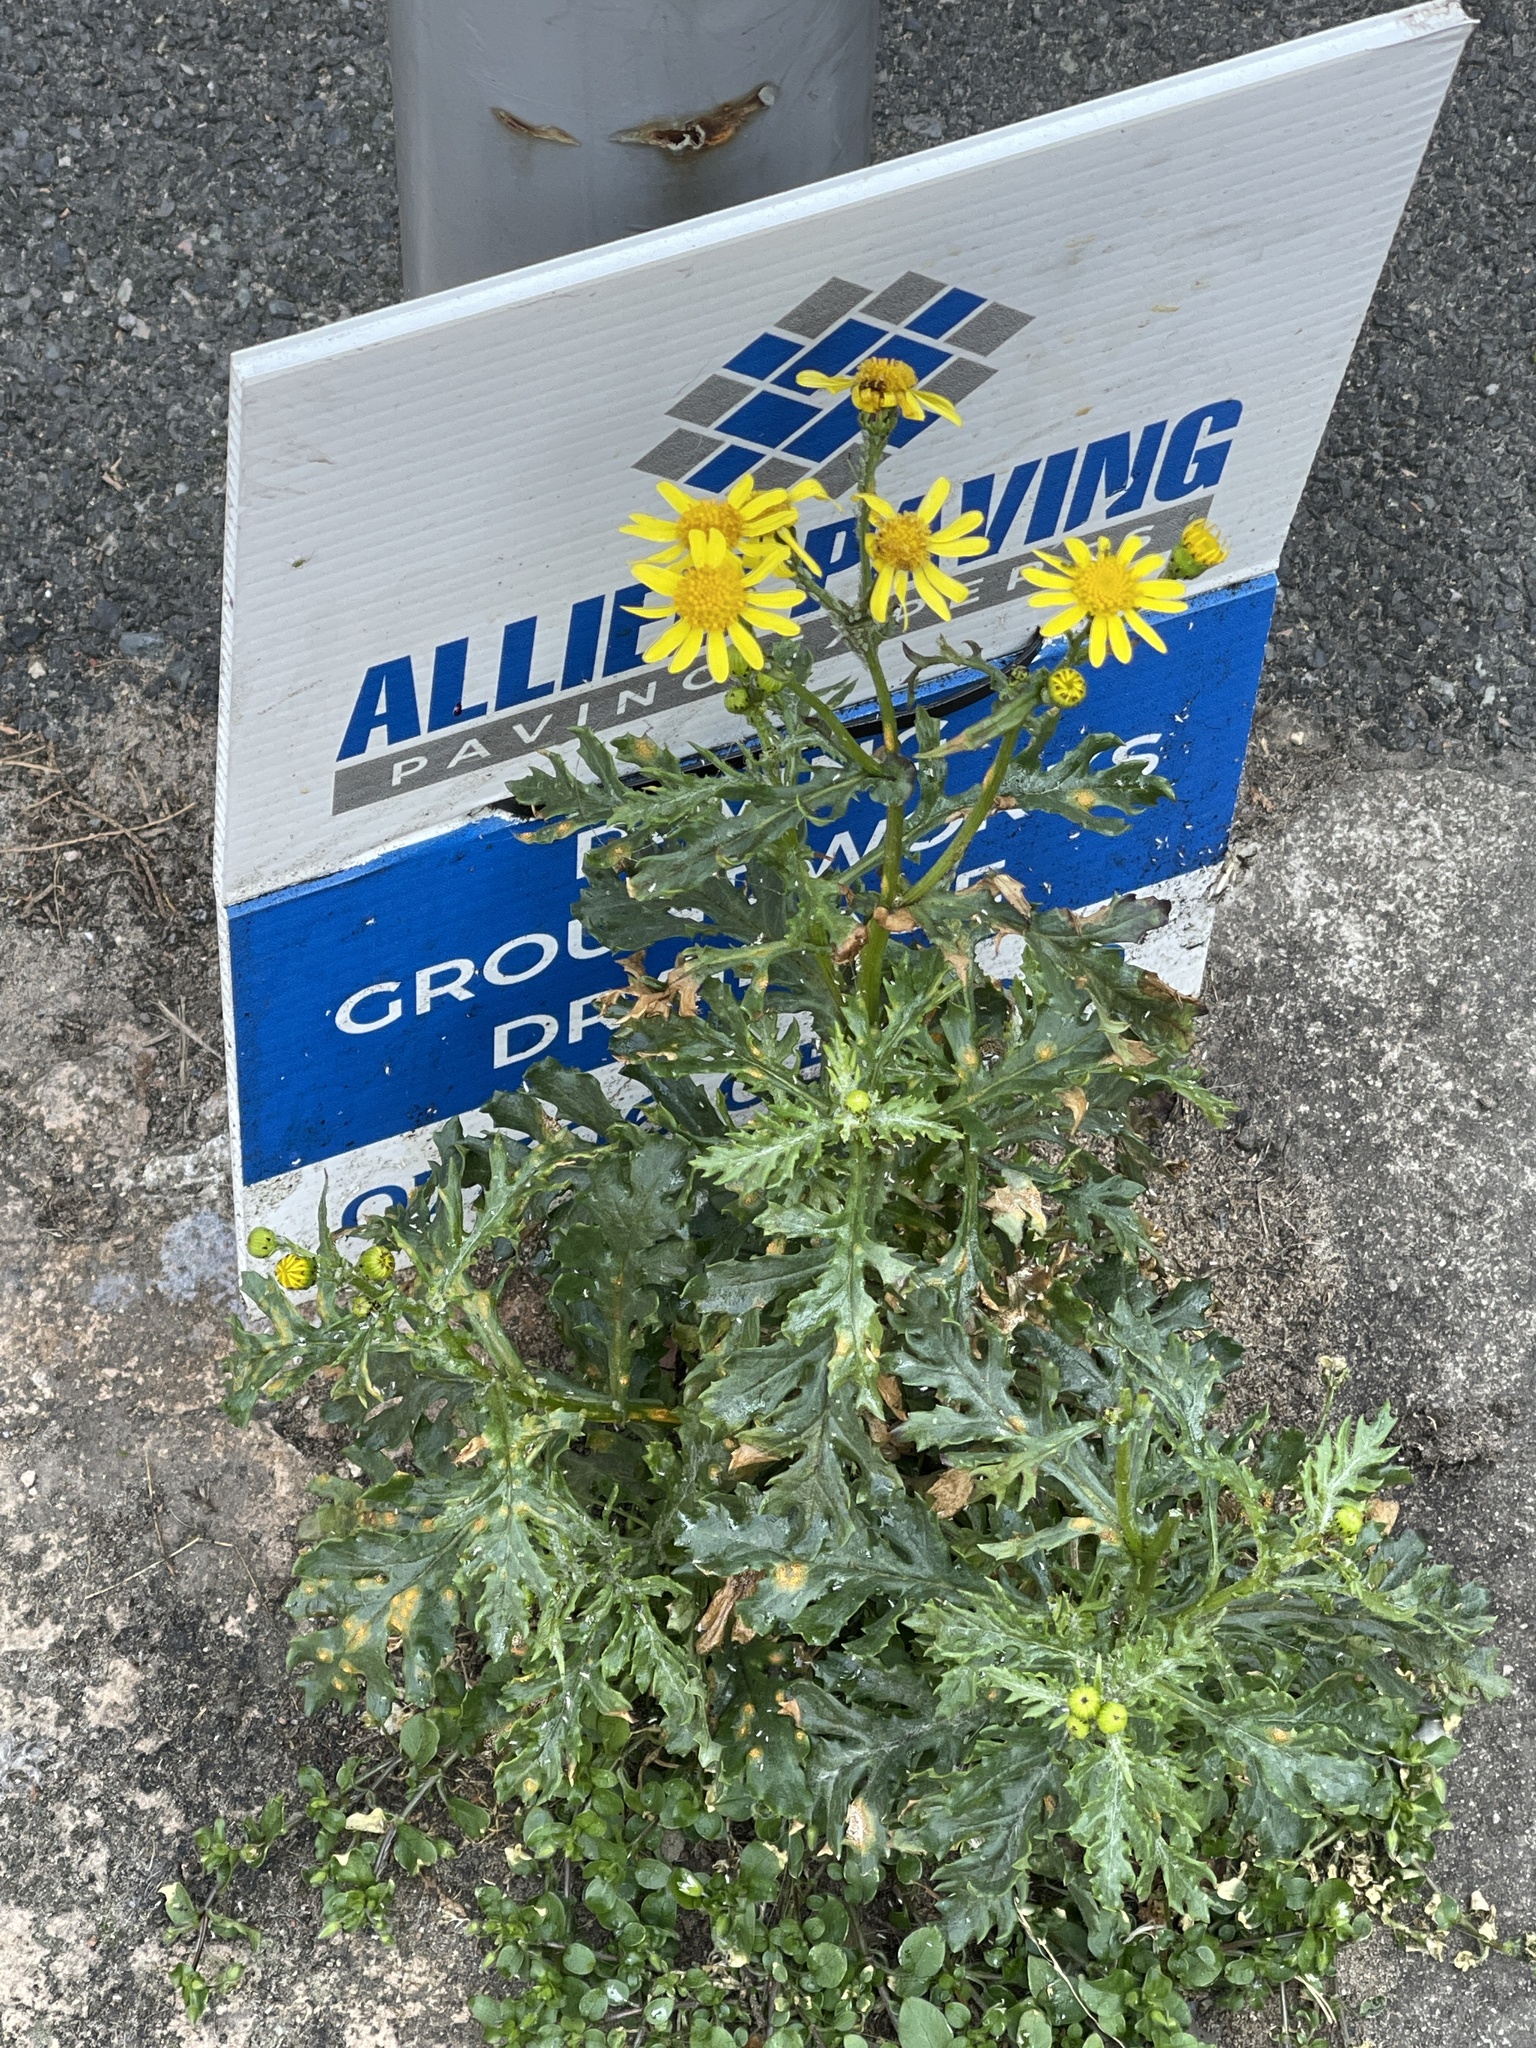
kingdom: Plantae
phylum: Tracheophyta
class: Magnoliopsida
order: Asterales
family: Asteraceae
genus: Senecio
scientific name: Senecio squalidus
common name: Oxford ragwort
